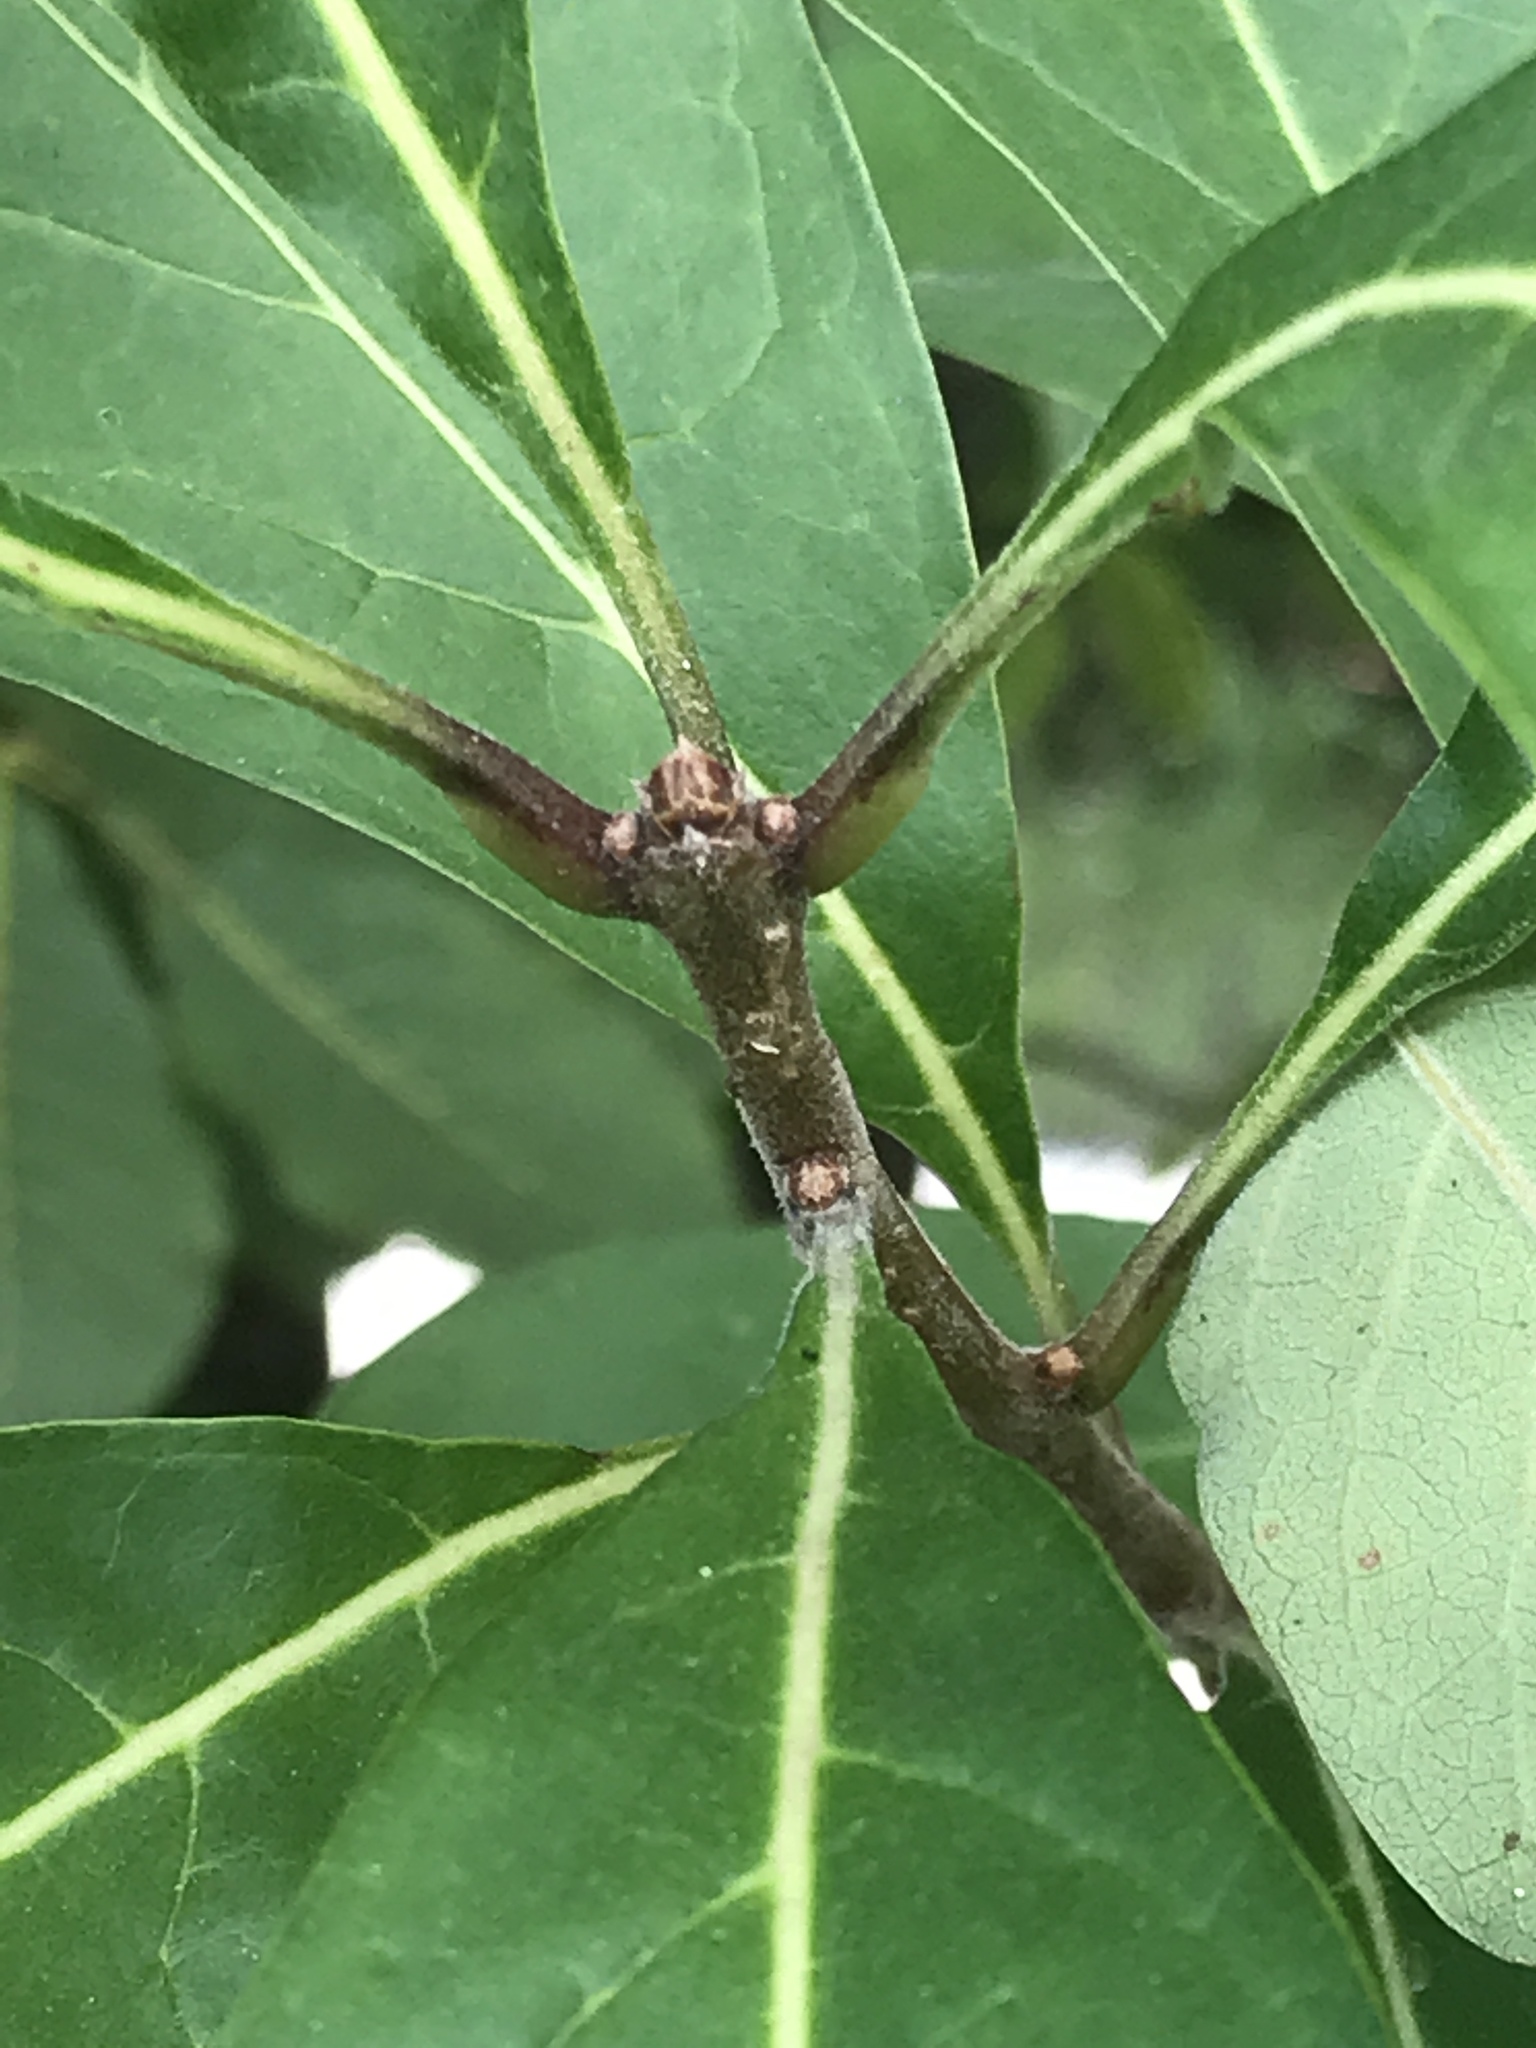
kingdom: Plantae
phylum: Tracheophyta
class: Magnoliopsida
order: Lamiales
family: Oleaceae
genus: Chionanthus
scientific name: Chionanthus virginicus
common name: American fringetree
